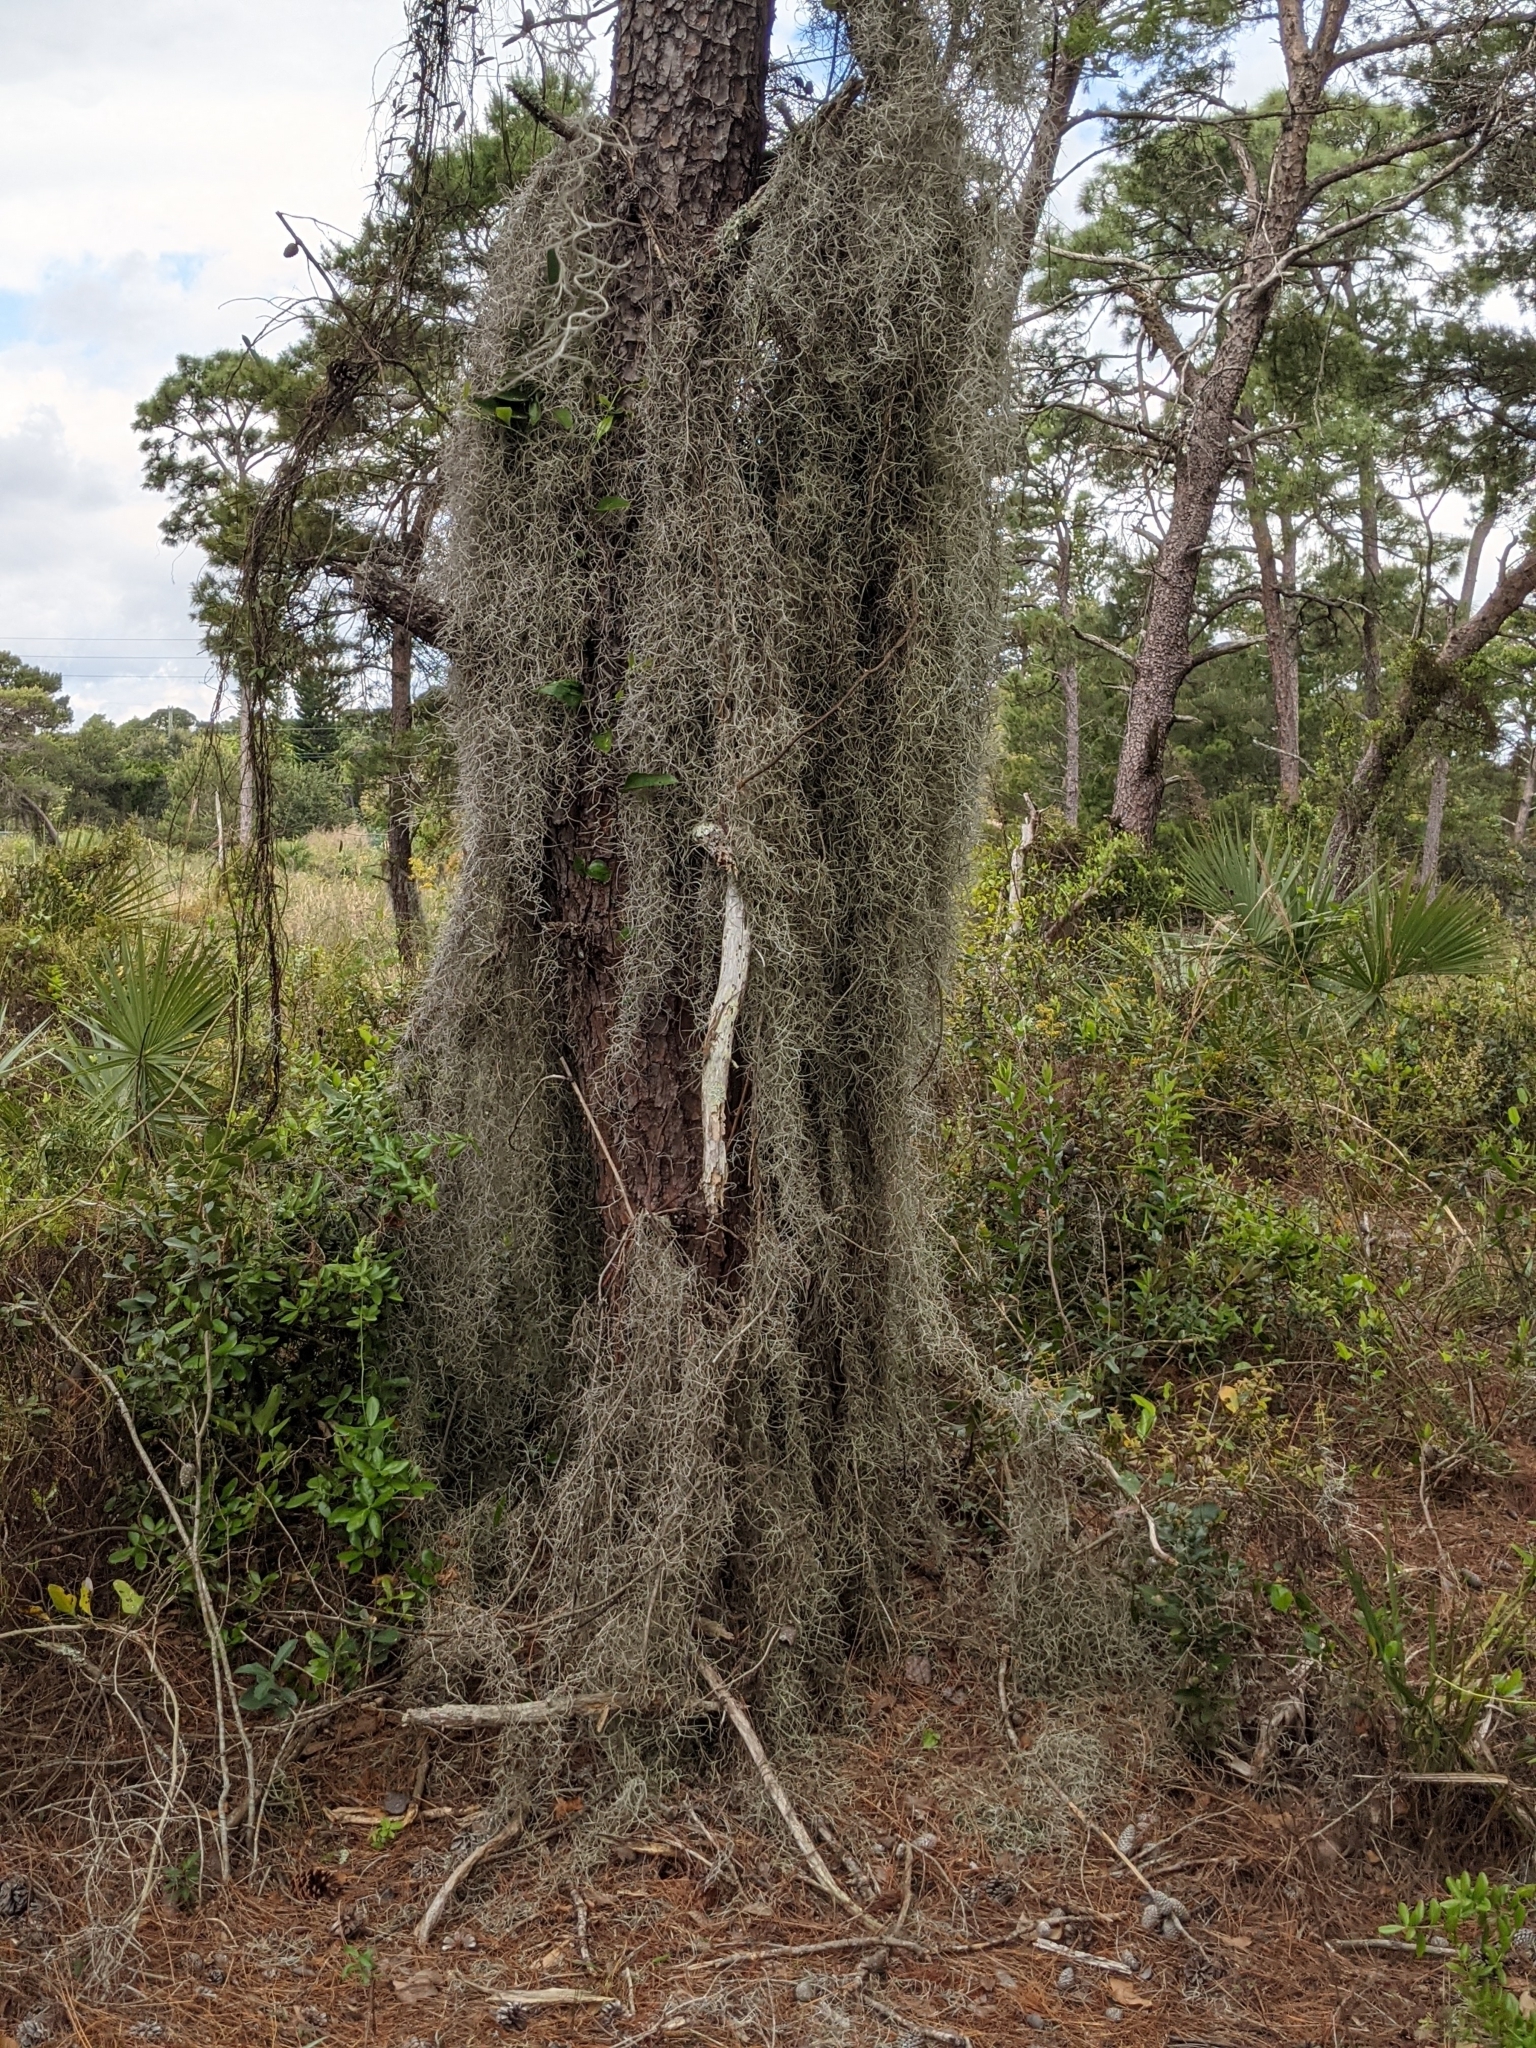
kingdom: Plantae
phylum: Tracheophyta
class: Liliopsida
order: Poales
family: Bromeliaceae
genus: Tillandsia
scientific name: Tillandsia usneoides
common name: Spanish moss
